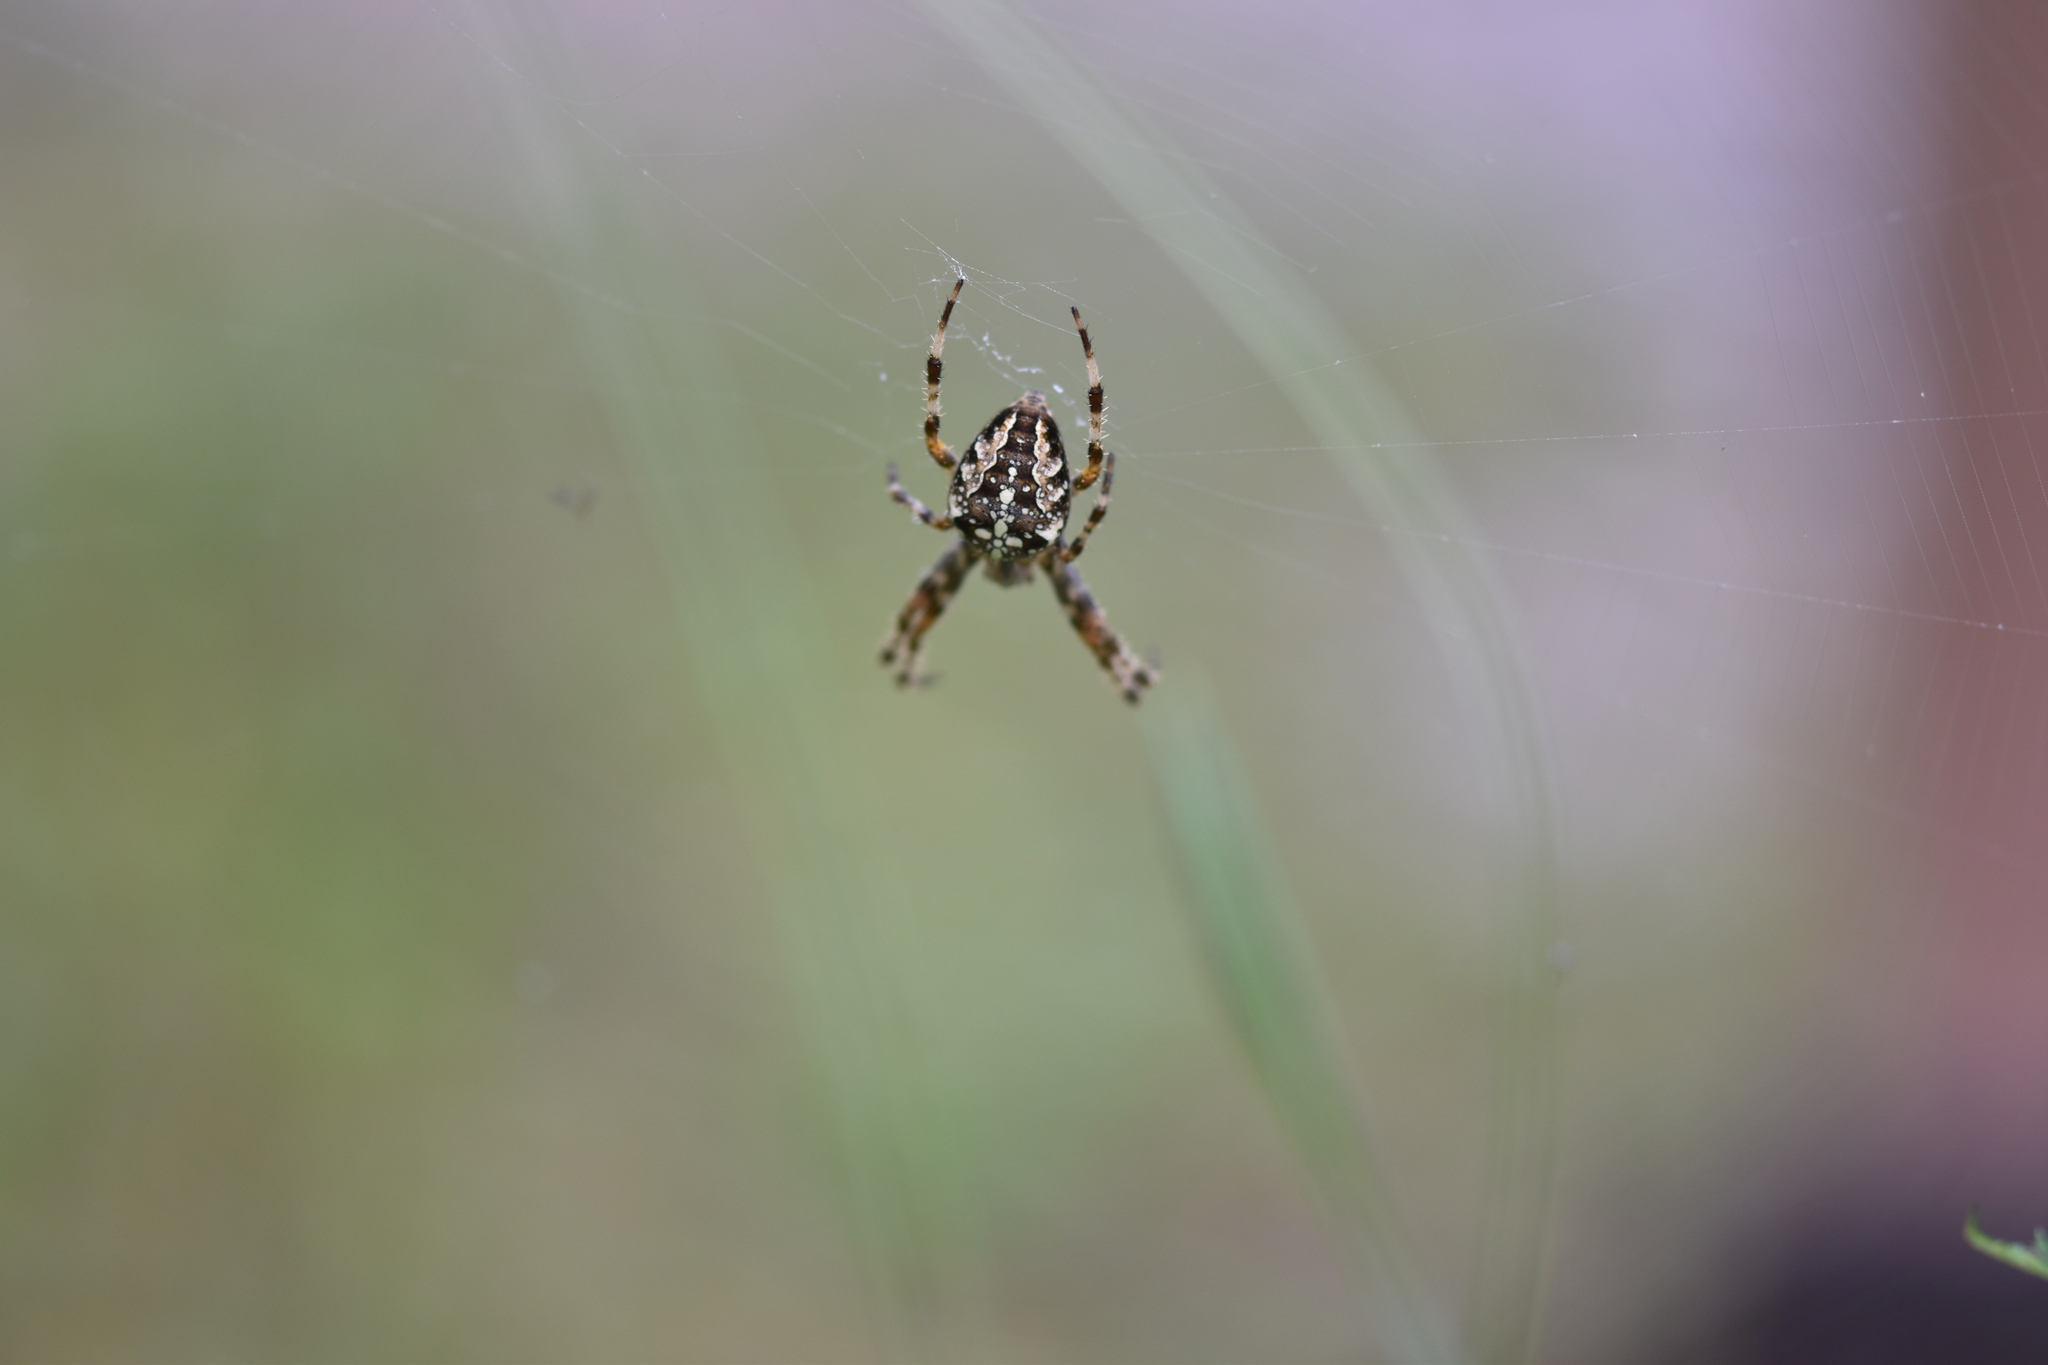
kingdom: Animalia
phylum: Arthropoda
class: Arachnida
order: Araneae
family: Araneidae
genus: Araneus
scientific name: Araneus diadematus
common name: Cross orbweaver
